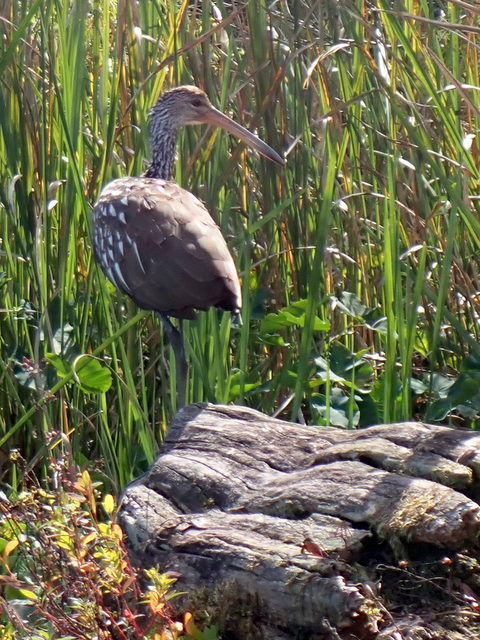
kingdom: Animalia
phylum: Chordata
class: Aves
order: Gruiformes
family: Aramidae
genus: Aramus
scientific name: Aramus guarauna
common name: Limpkin
